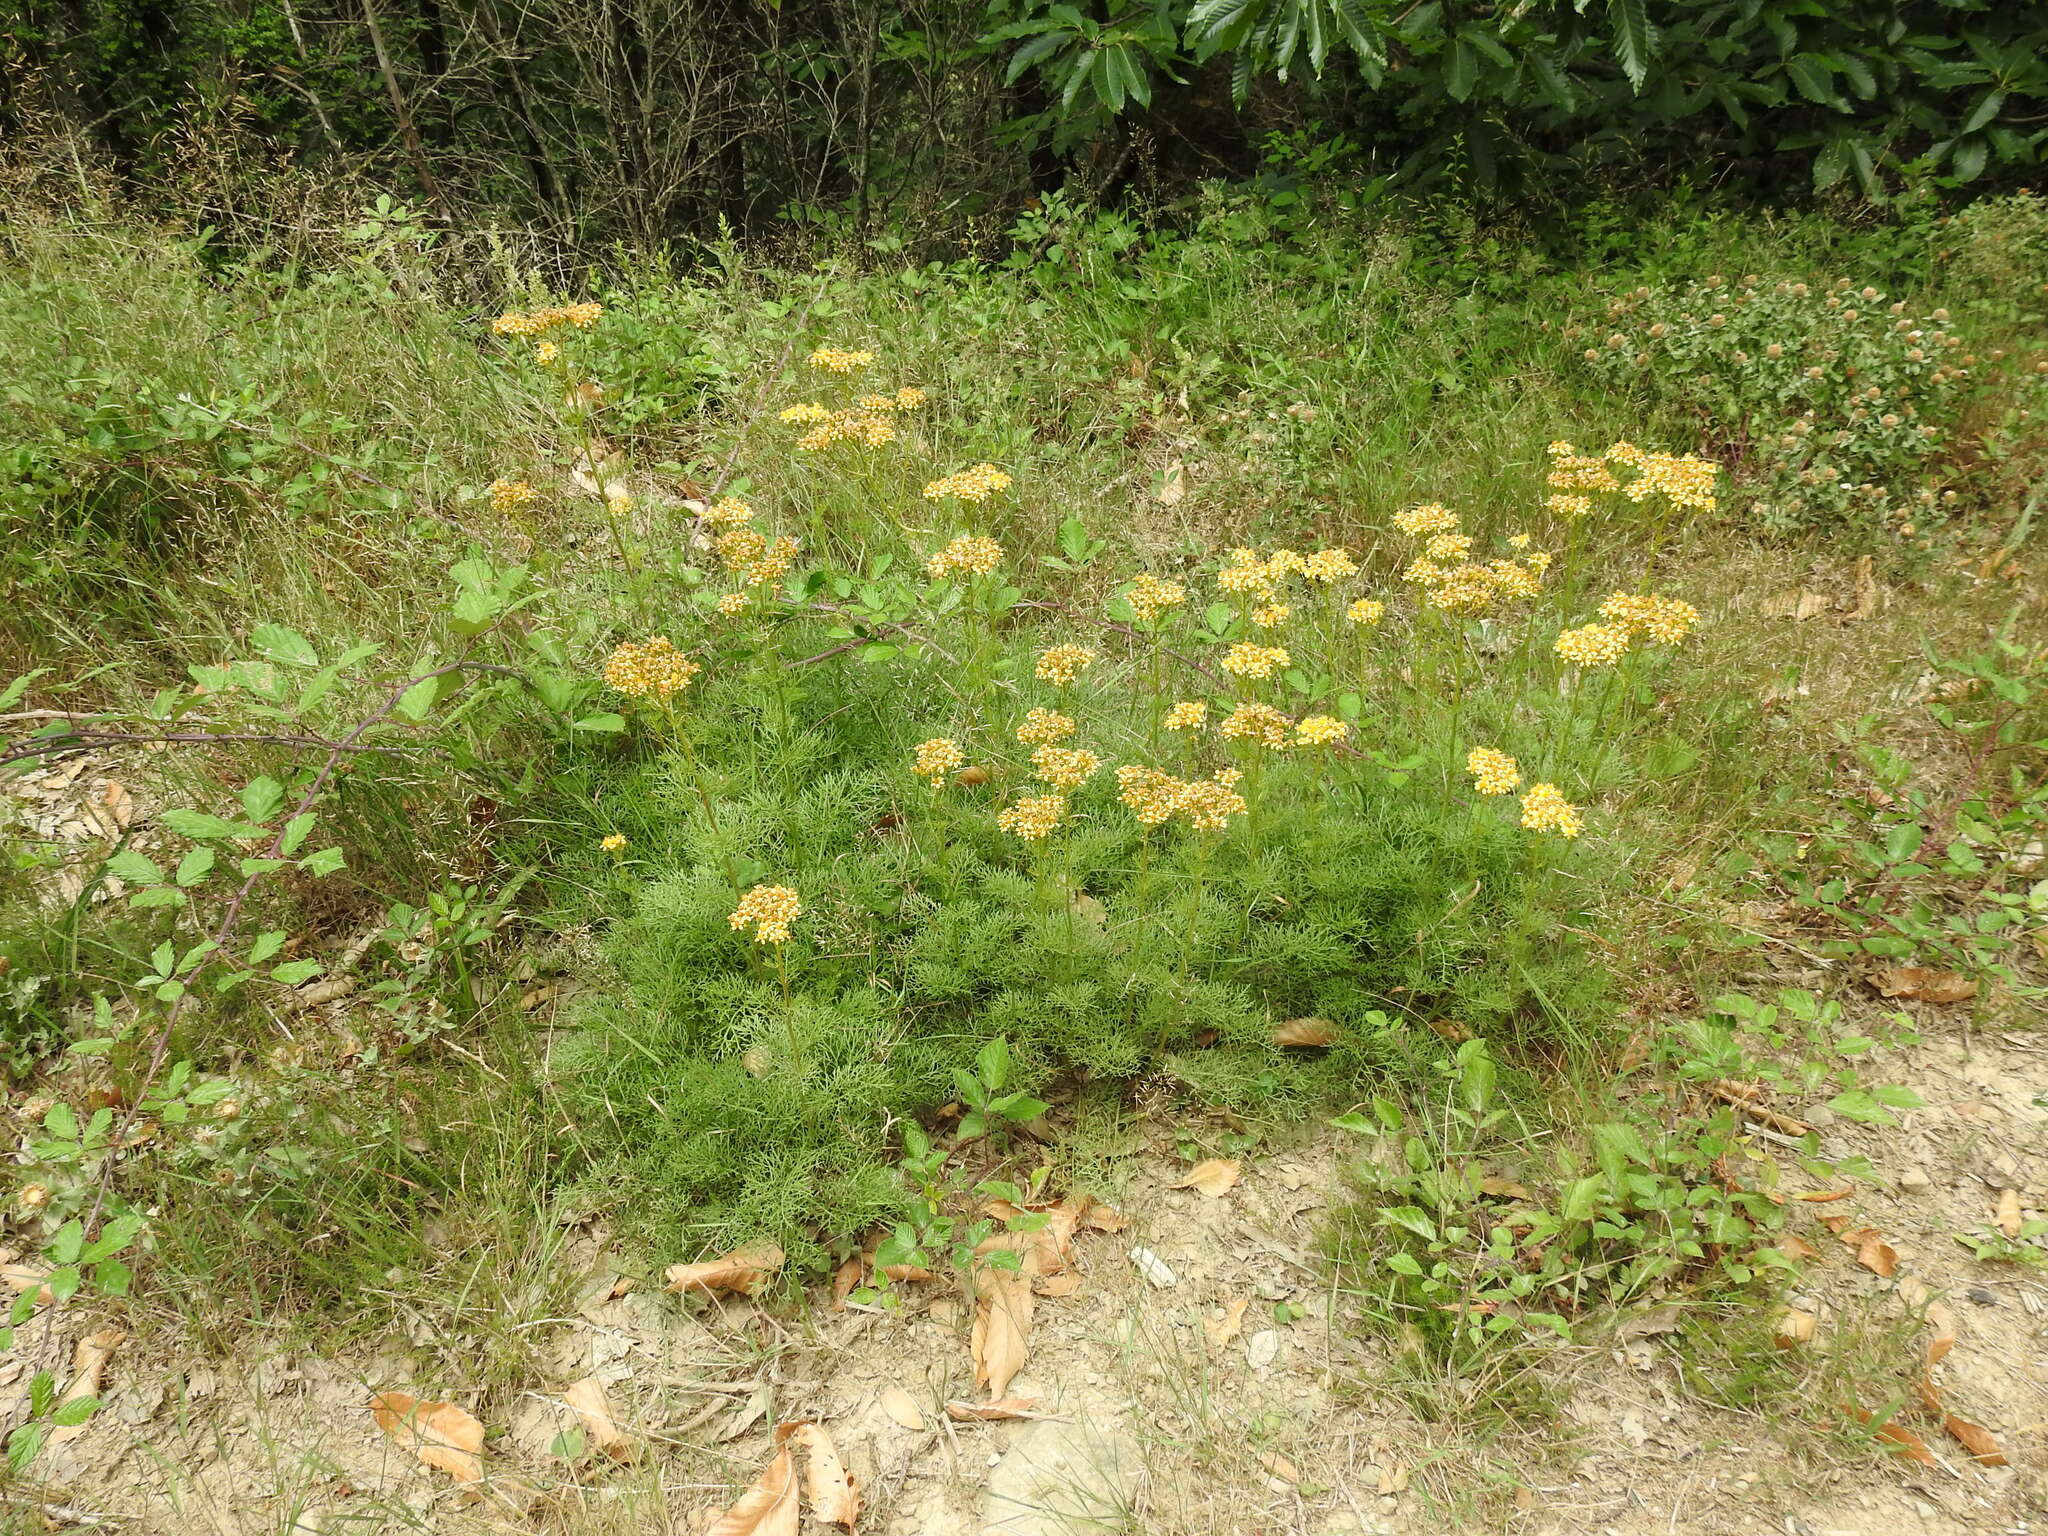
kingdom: Plantae
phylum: Tracheophyta
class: Magnoliopsida
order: Asterales
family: Asteraceae
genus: Jacobaea
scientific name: Jacobaea adonidifolia
